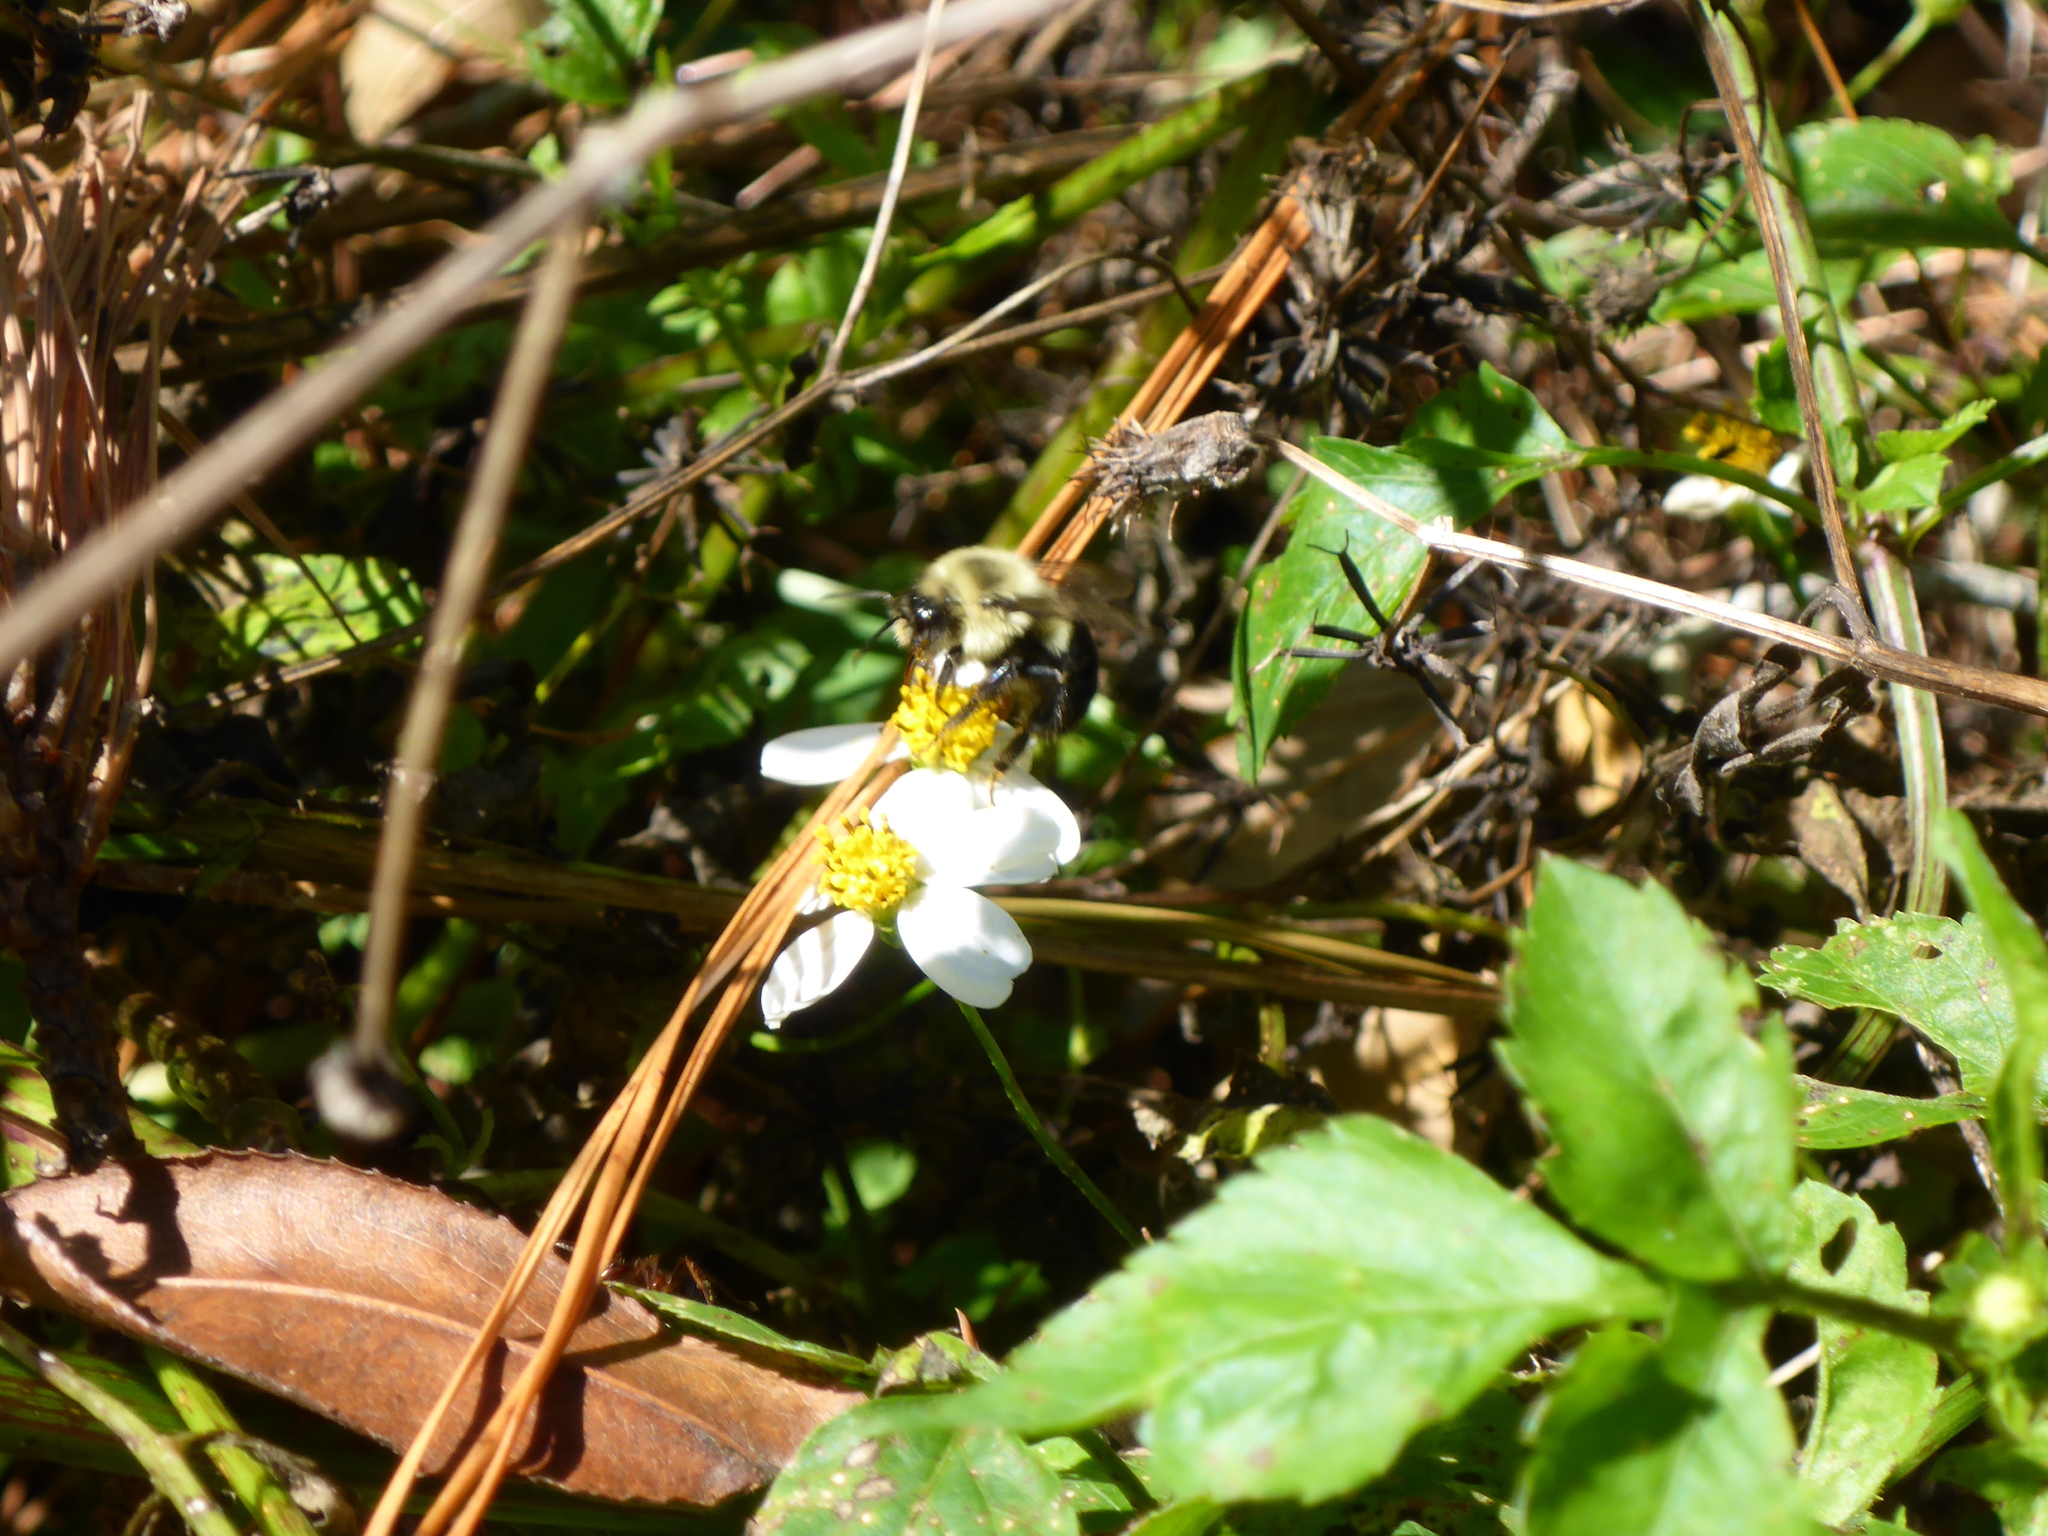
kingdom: Animalia
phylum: Arthropoda
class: Insecta
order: Hymenoptera
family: Apidae
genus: Bombus
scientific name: Bombus impatiens
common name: Common eastern bumble bee
